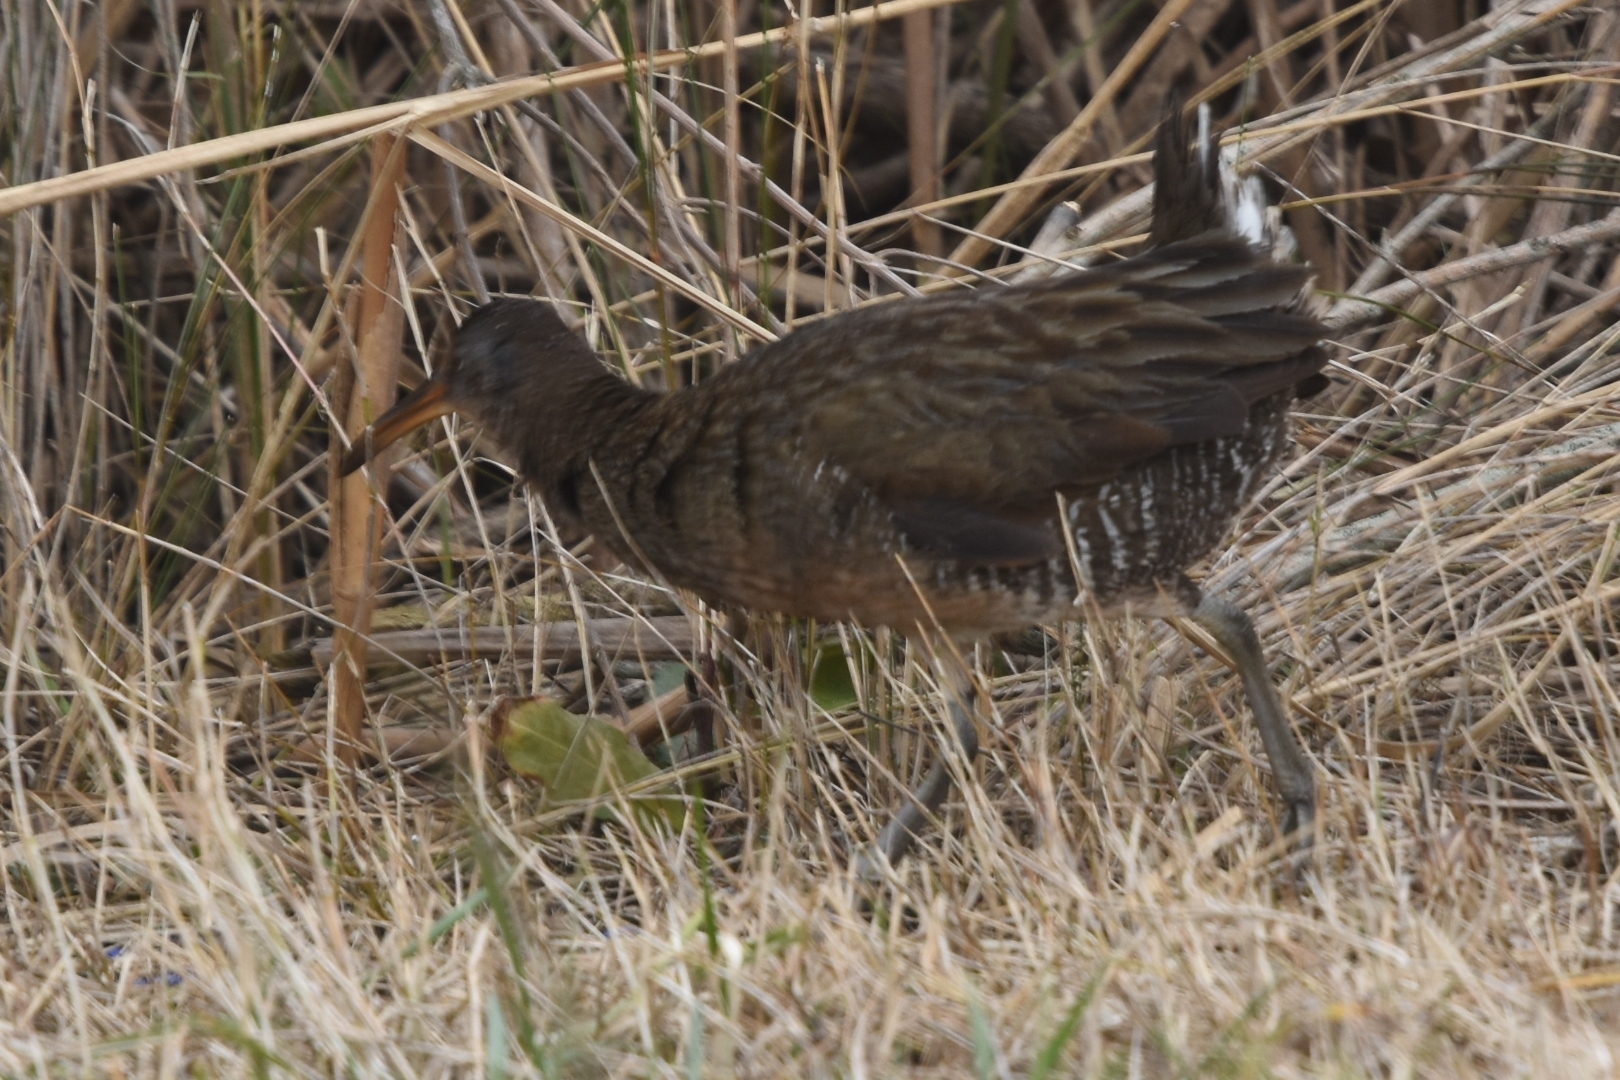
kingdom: Animalia
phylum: Chordata
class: Aves
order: Gruiformes
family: Rallidae
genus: Rallus
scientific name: Rallus limicola
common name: Virginia rail
